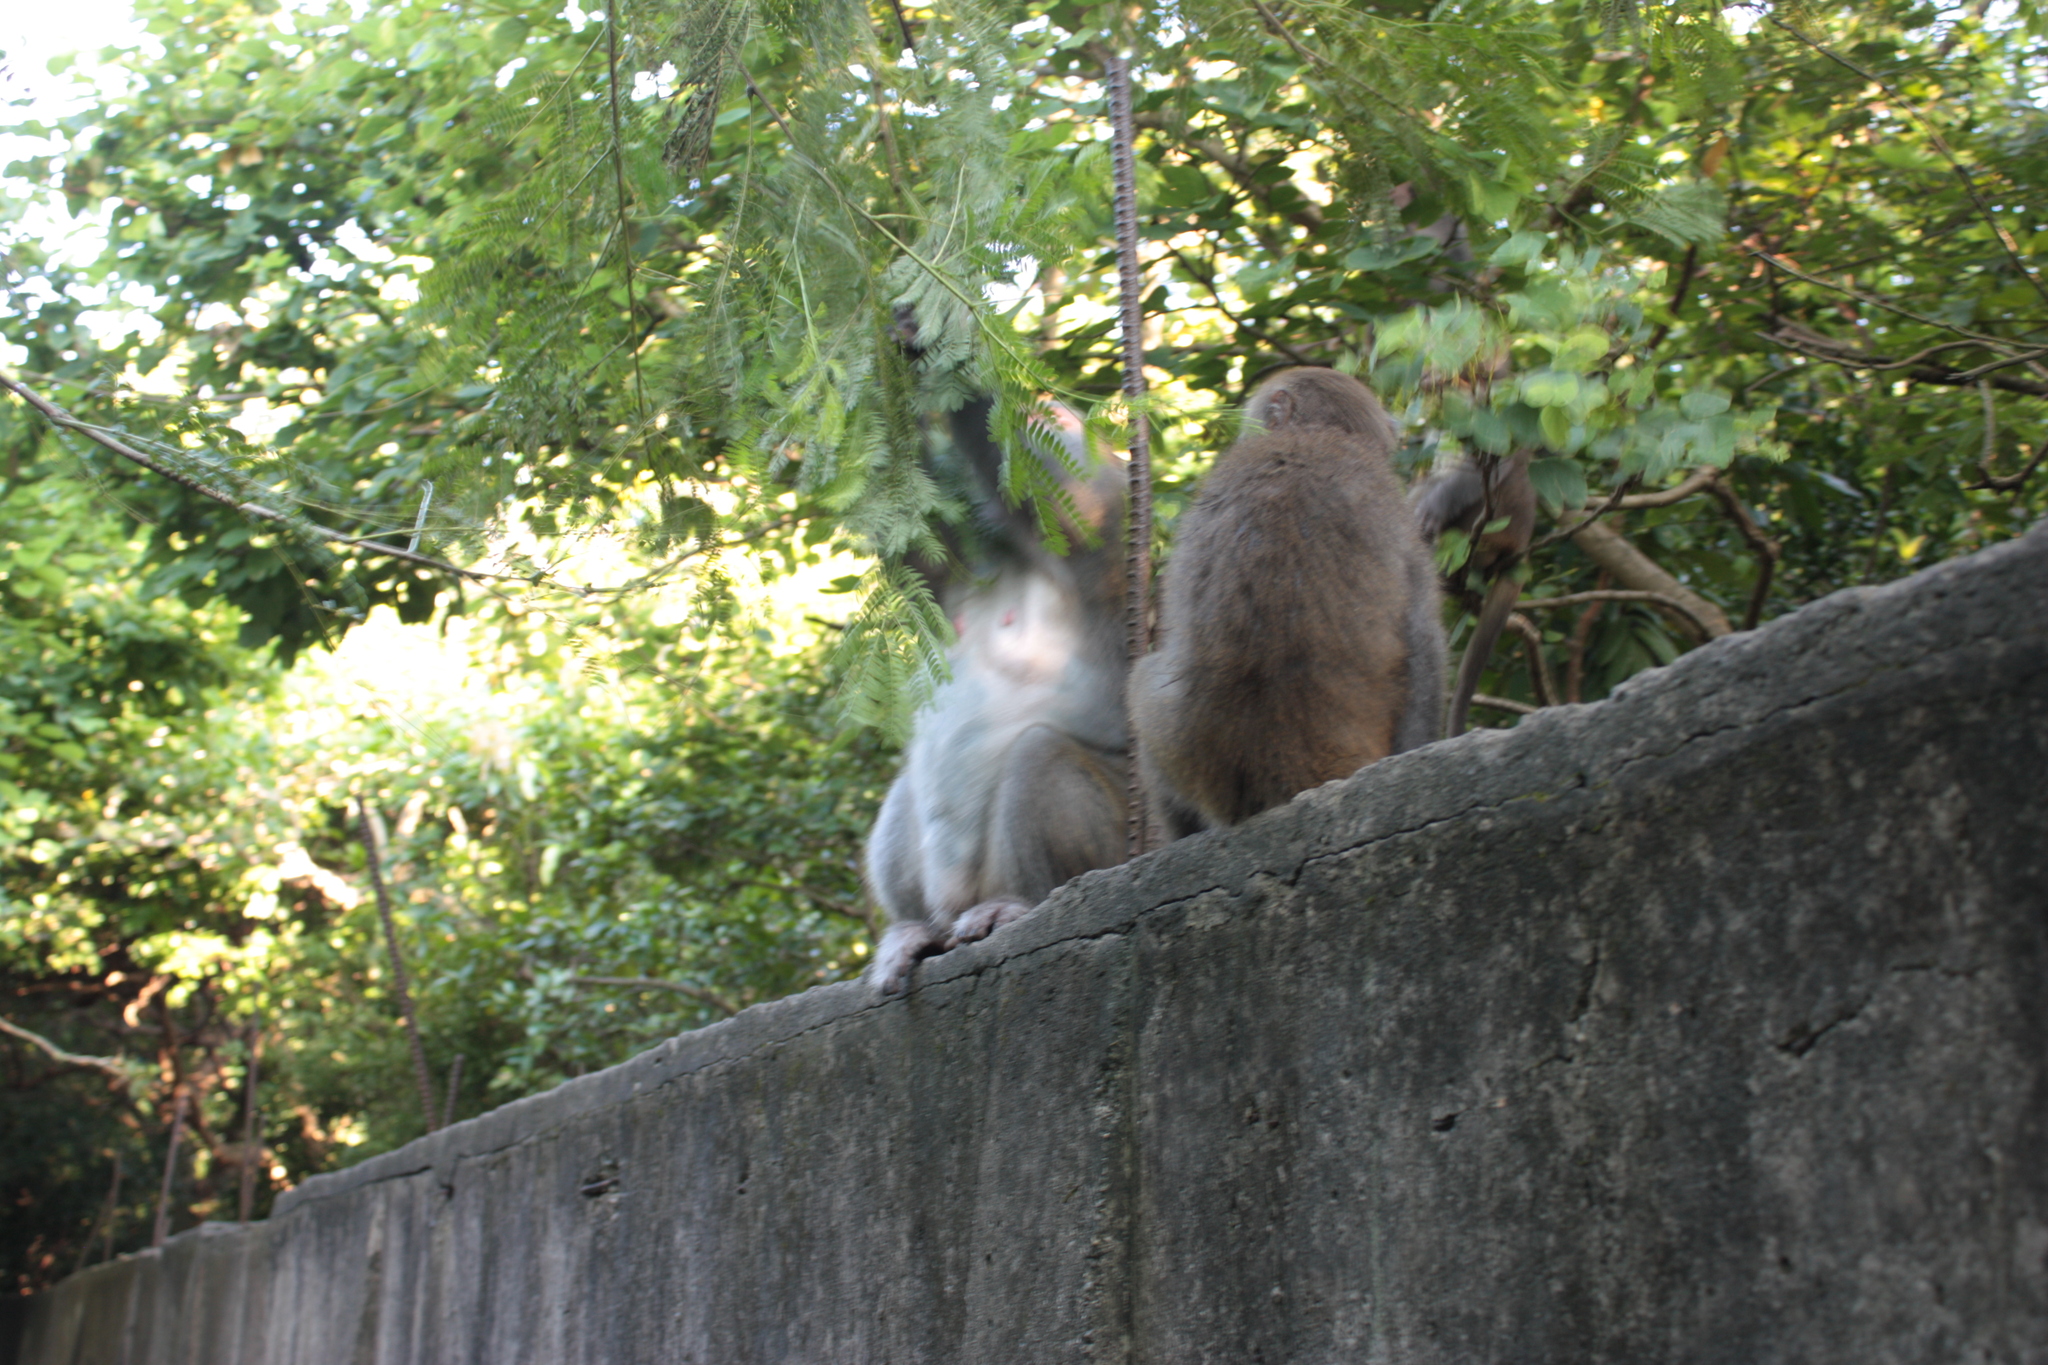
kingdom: Animalia
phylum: Chordata
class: Mammalia
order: Primates
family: Cercopithecidae
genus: Macaca
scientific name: Macaca cyclopis
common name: Formosan rock macaque
